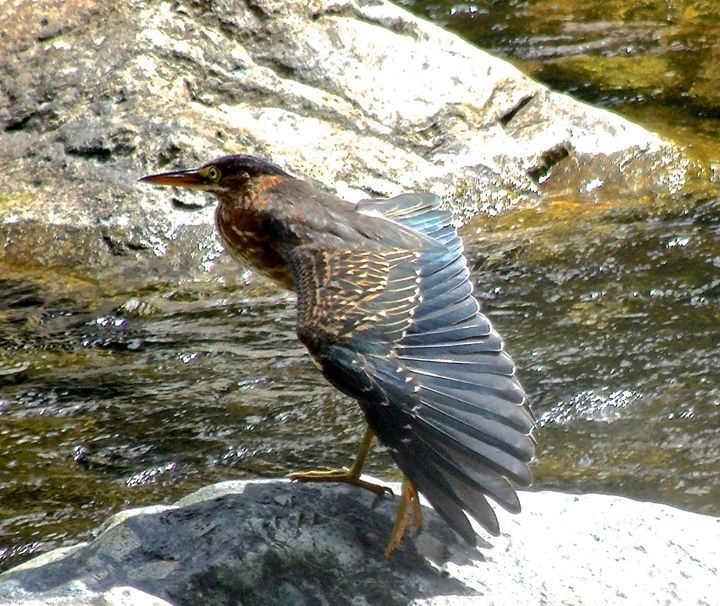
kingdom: Animalia
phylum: Chordata
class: Aves
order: Pelecaniformes
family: Ardeidae
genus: Butorides
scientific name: Butorides virescens
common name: Green heron
